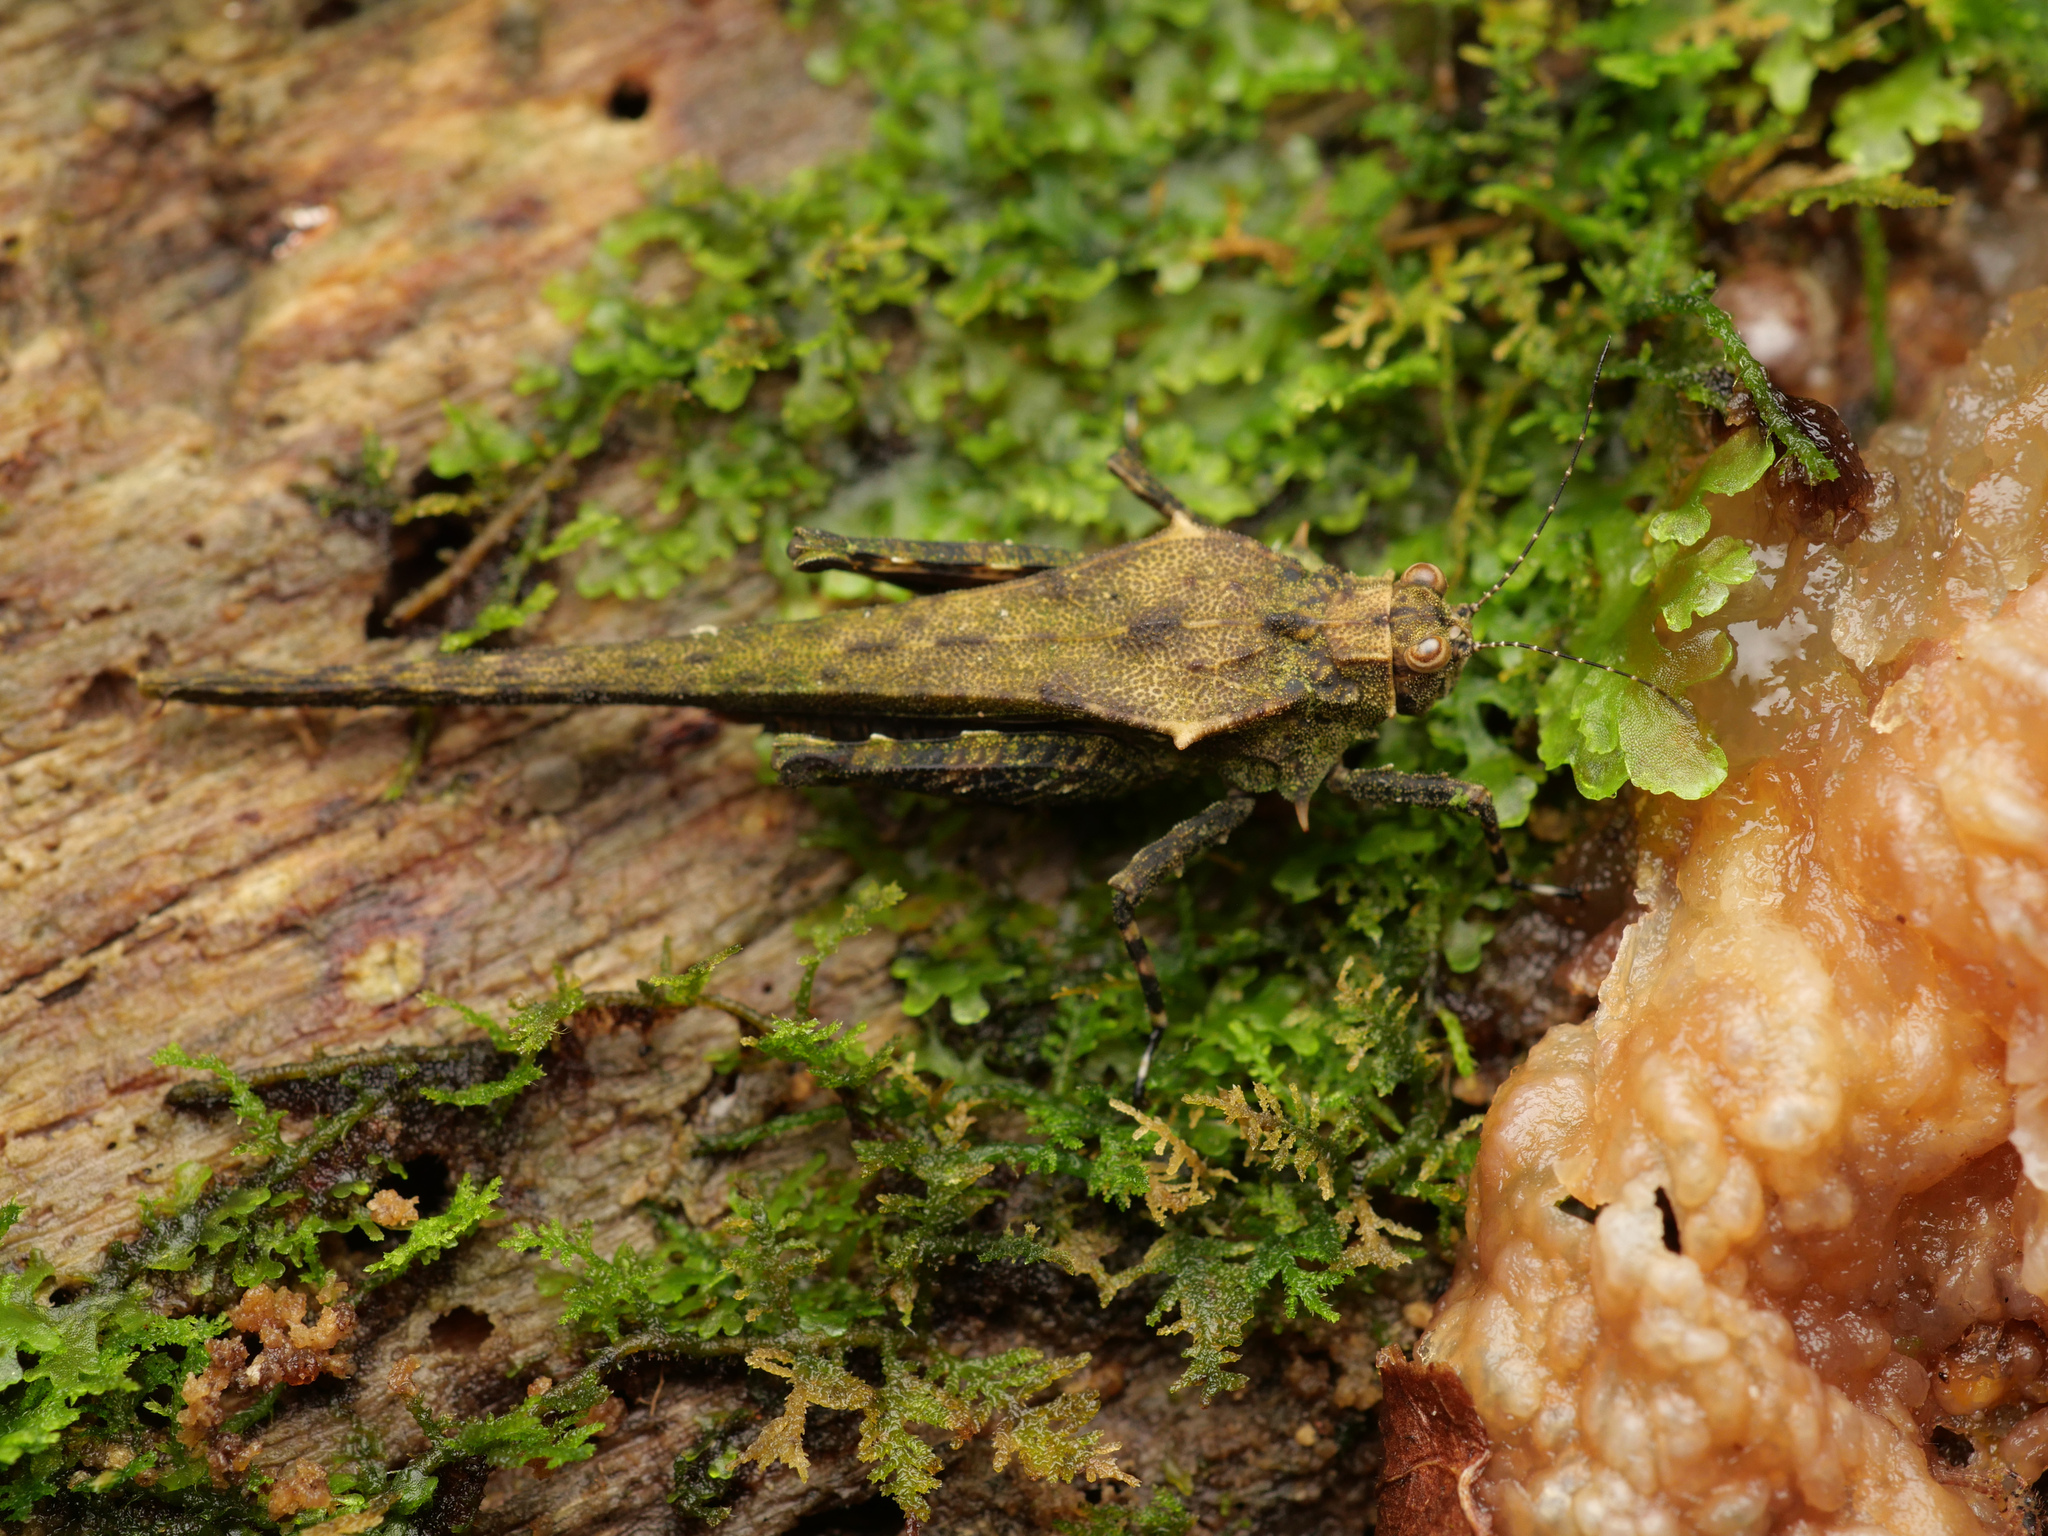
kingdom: Animalia
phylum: Arthropoda
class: Insecta
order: Orthoptera
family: Tetrigidae
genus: Scelimena
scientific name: Scelimena novaeguineae
